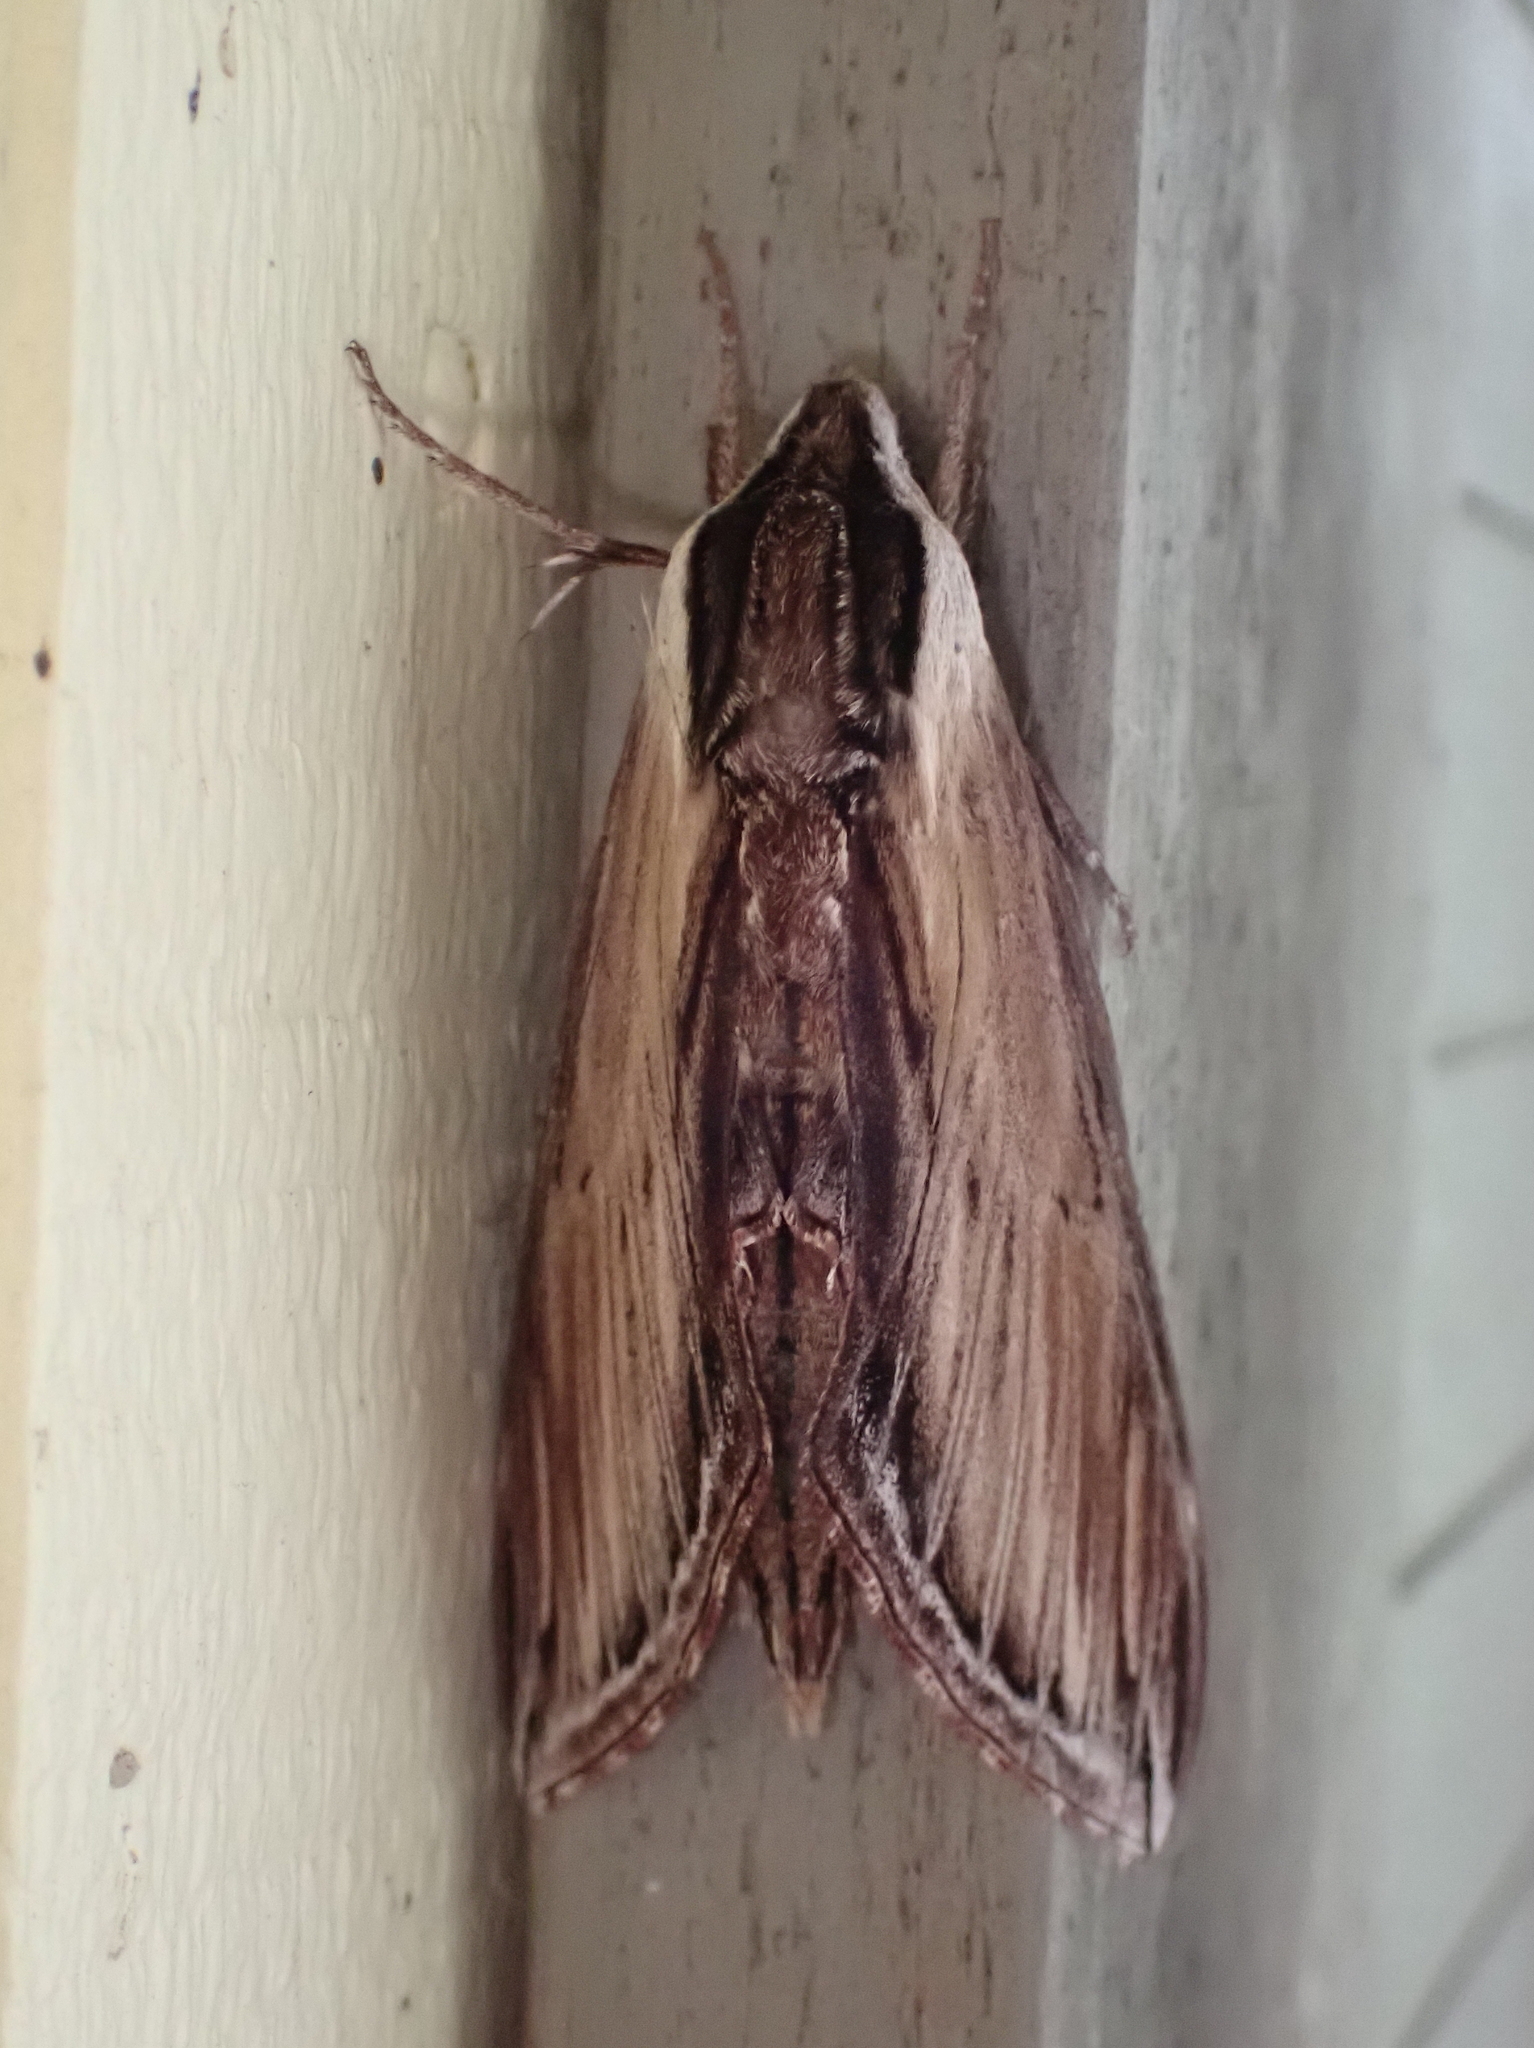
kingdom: Animalia
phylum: Arthropoda
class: Insecta
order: Lepidoptera
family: Sphingidae
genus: Sphinx
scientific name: Sphinx kalmiae
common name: Laurel sphinx
